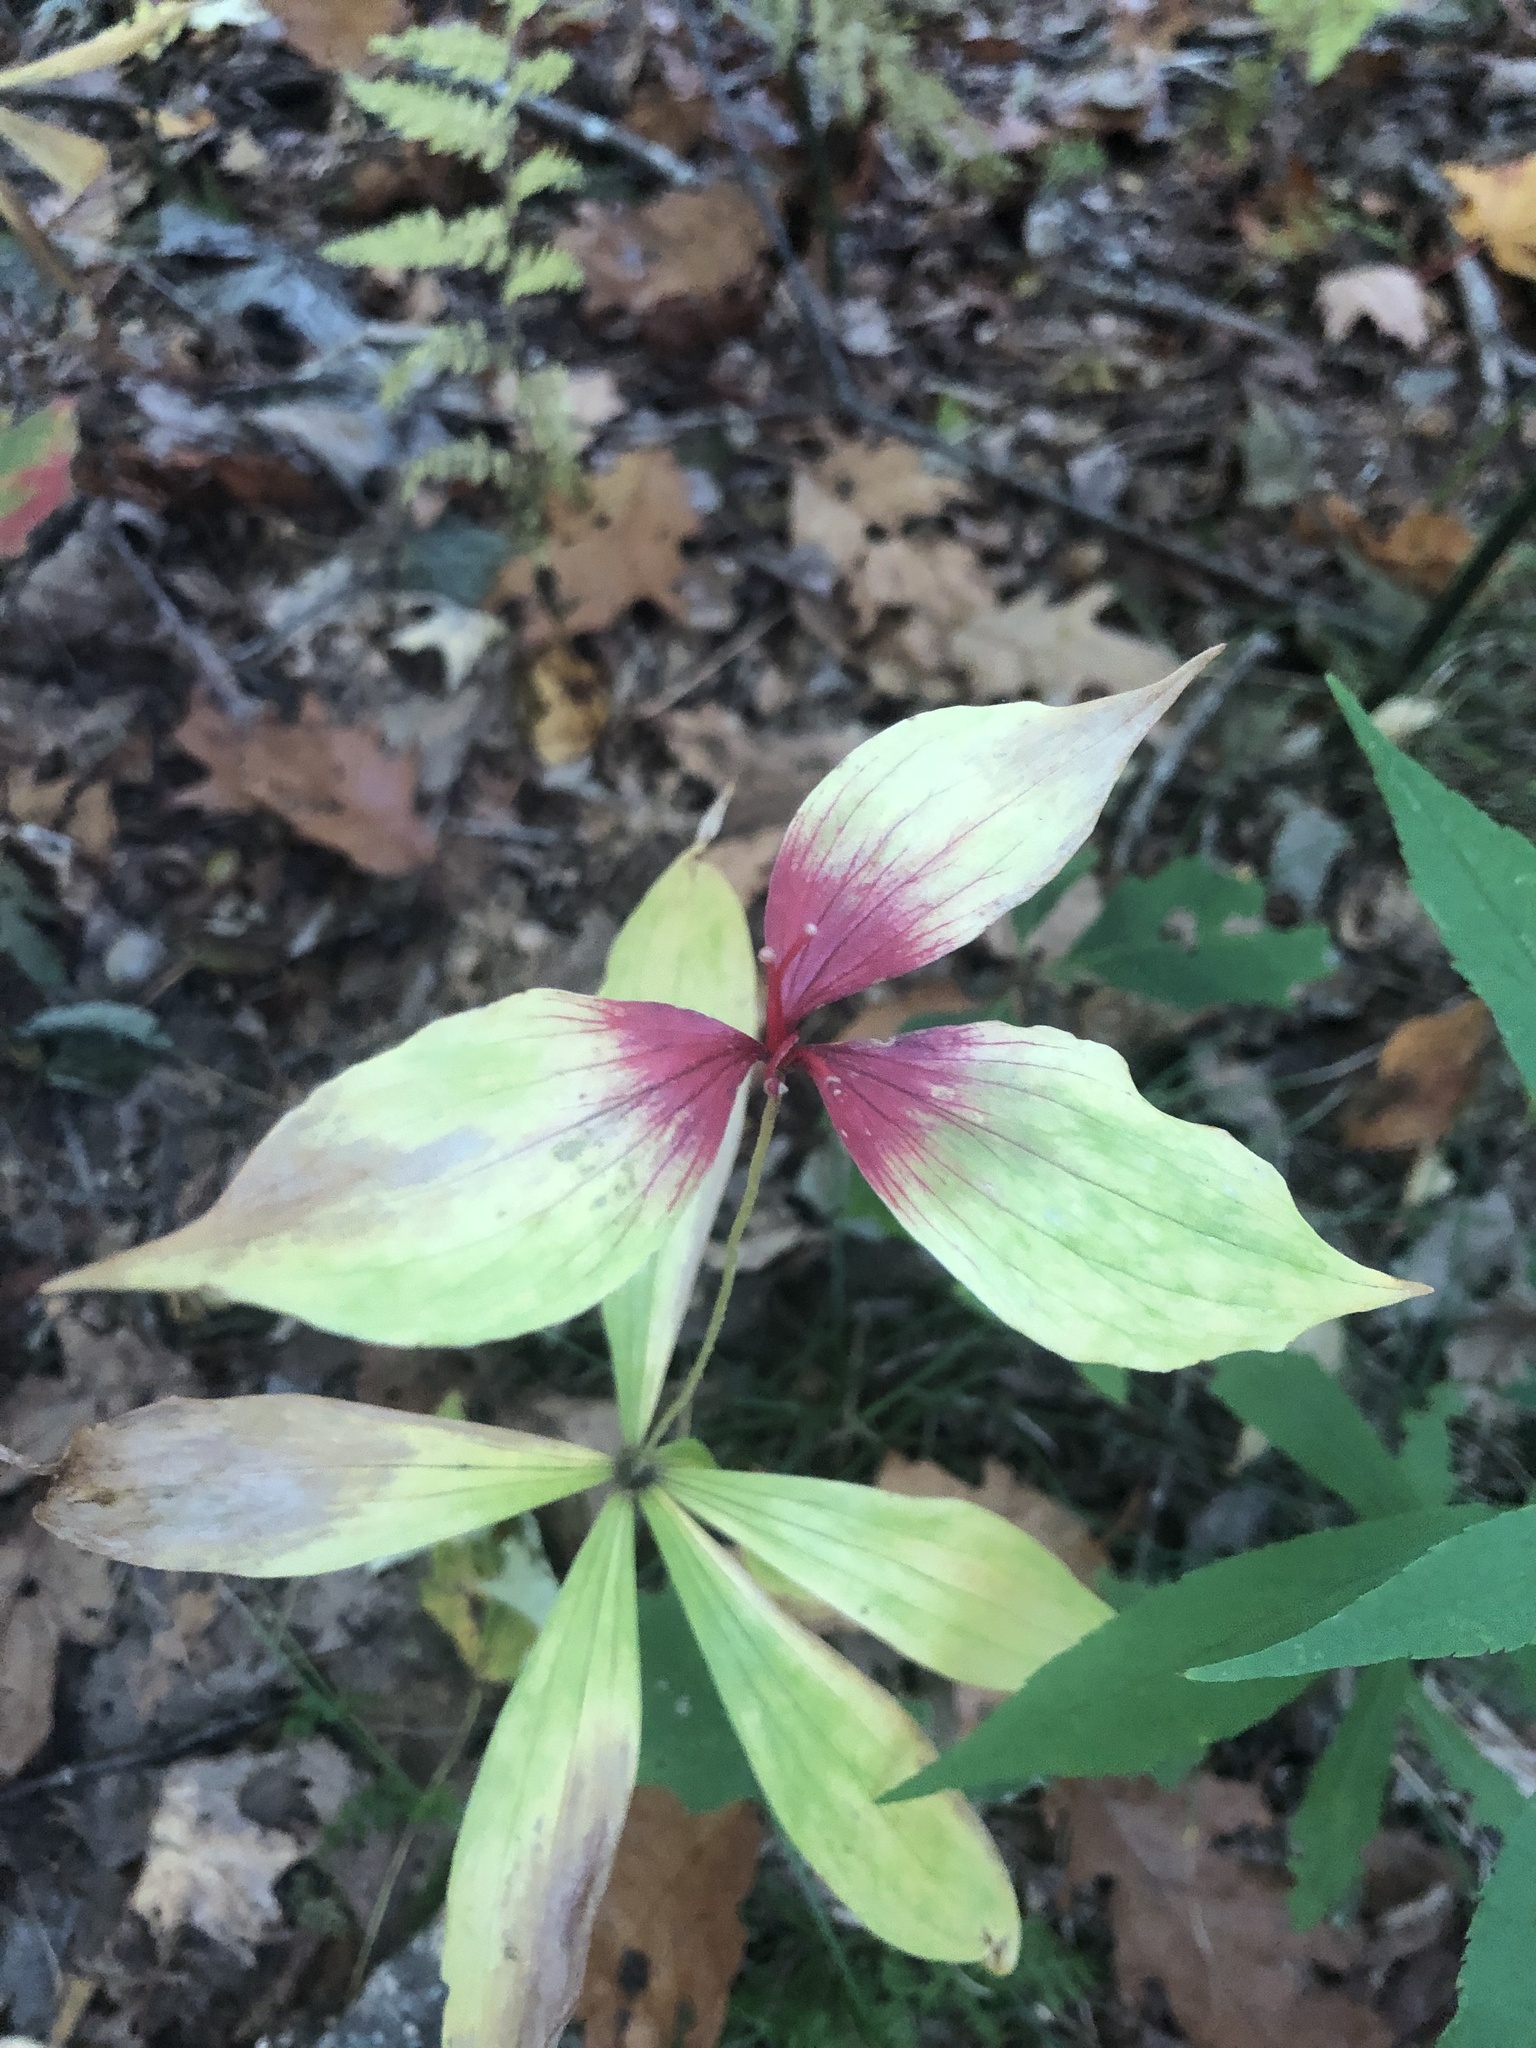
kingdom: Plantae
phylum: Tracheophyta
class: Liliopsida
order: Liliales
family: Liliaceae
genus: Medeola
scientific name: Medeola virginiana
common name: Indian cucumber-root
